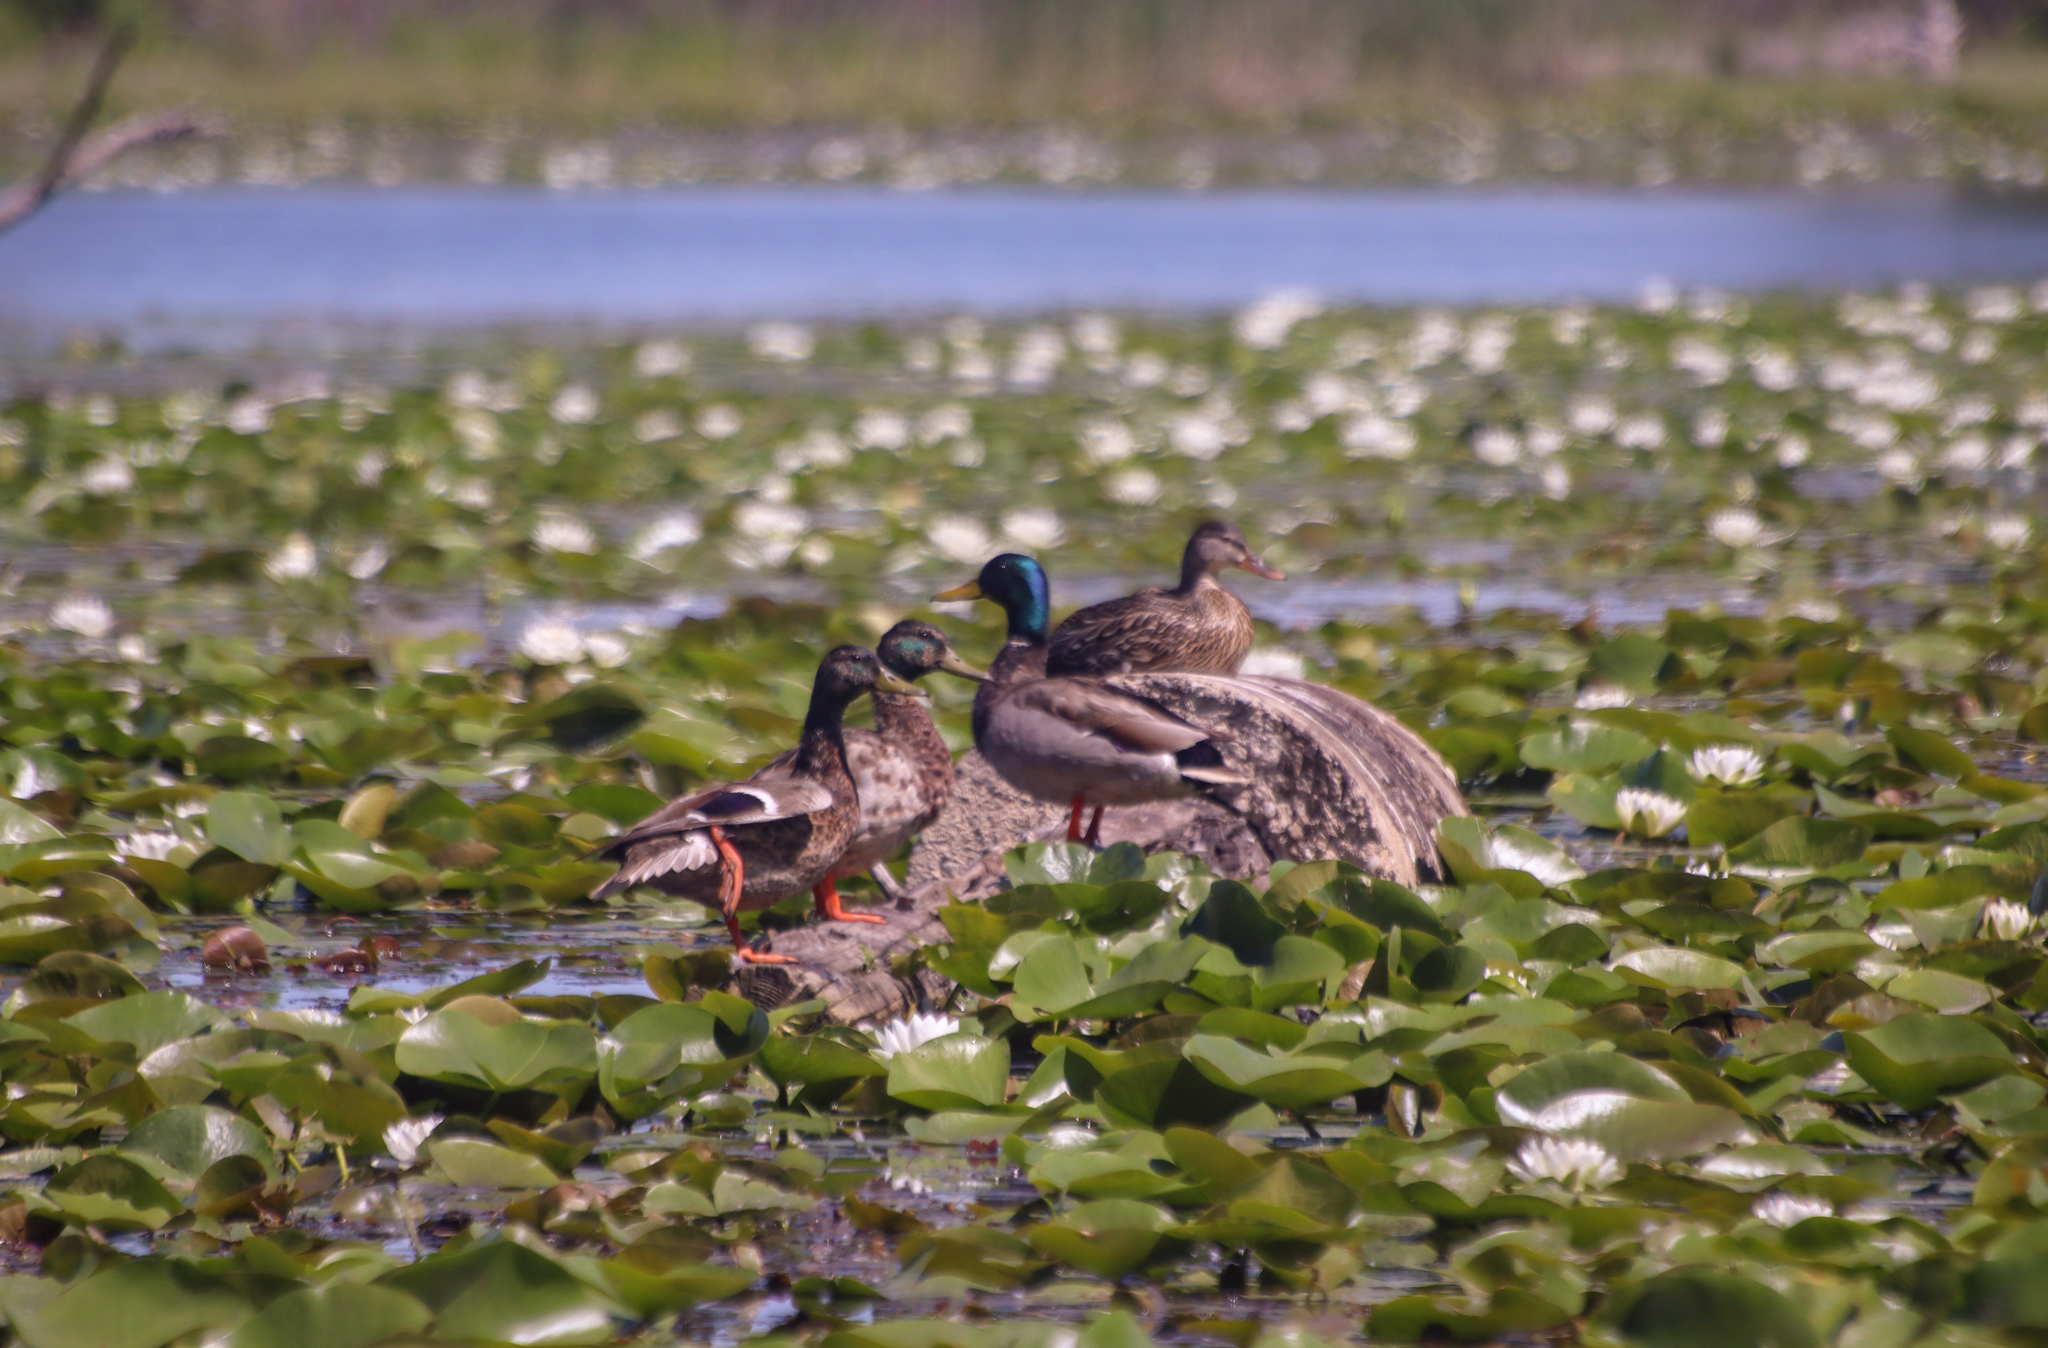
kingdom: Animalia
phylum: Chordata
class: Aves
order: Anseriformes
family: Anatidae
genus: Anas
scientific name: Anas platyrhynchos
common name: Mallard
